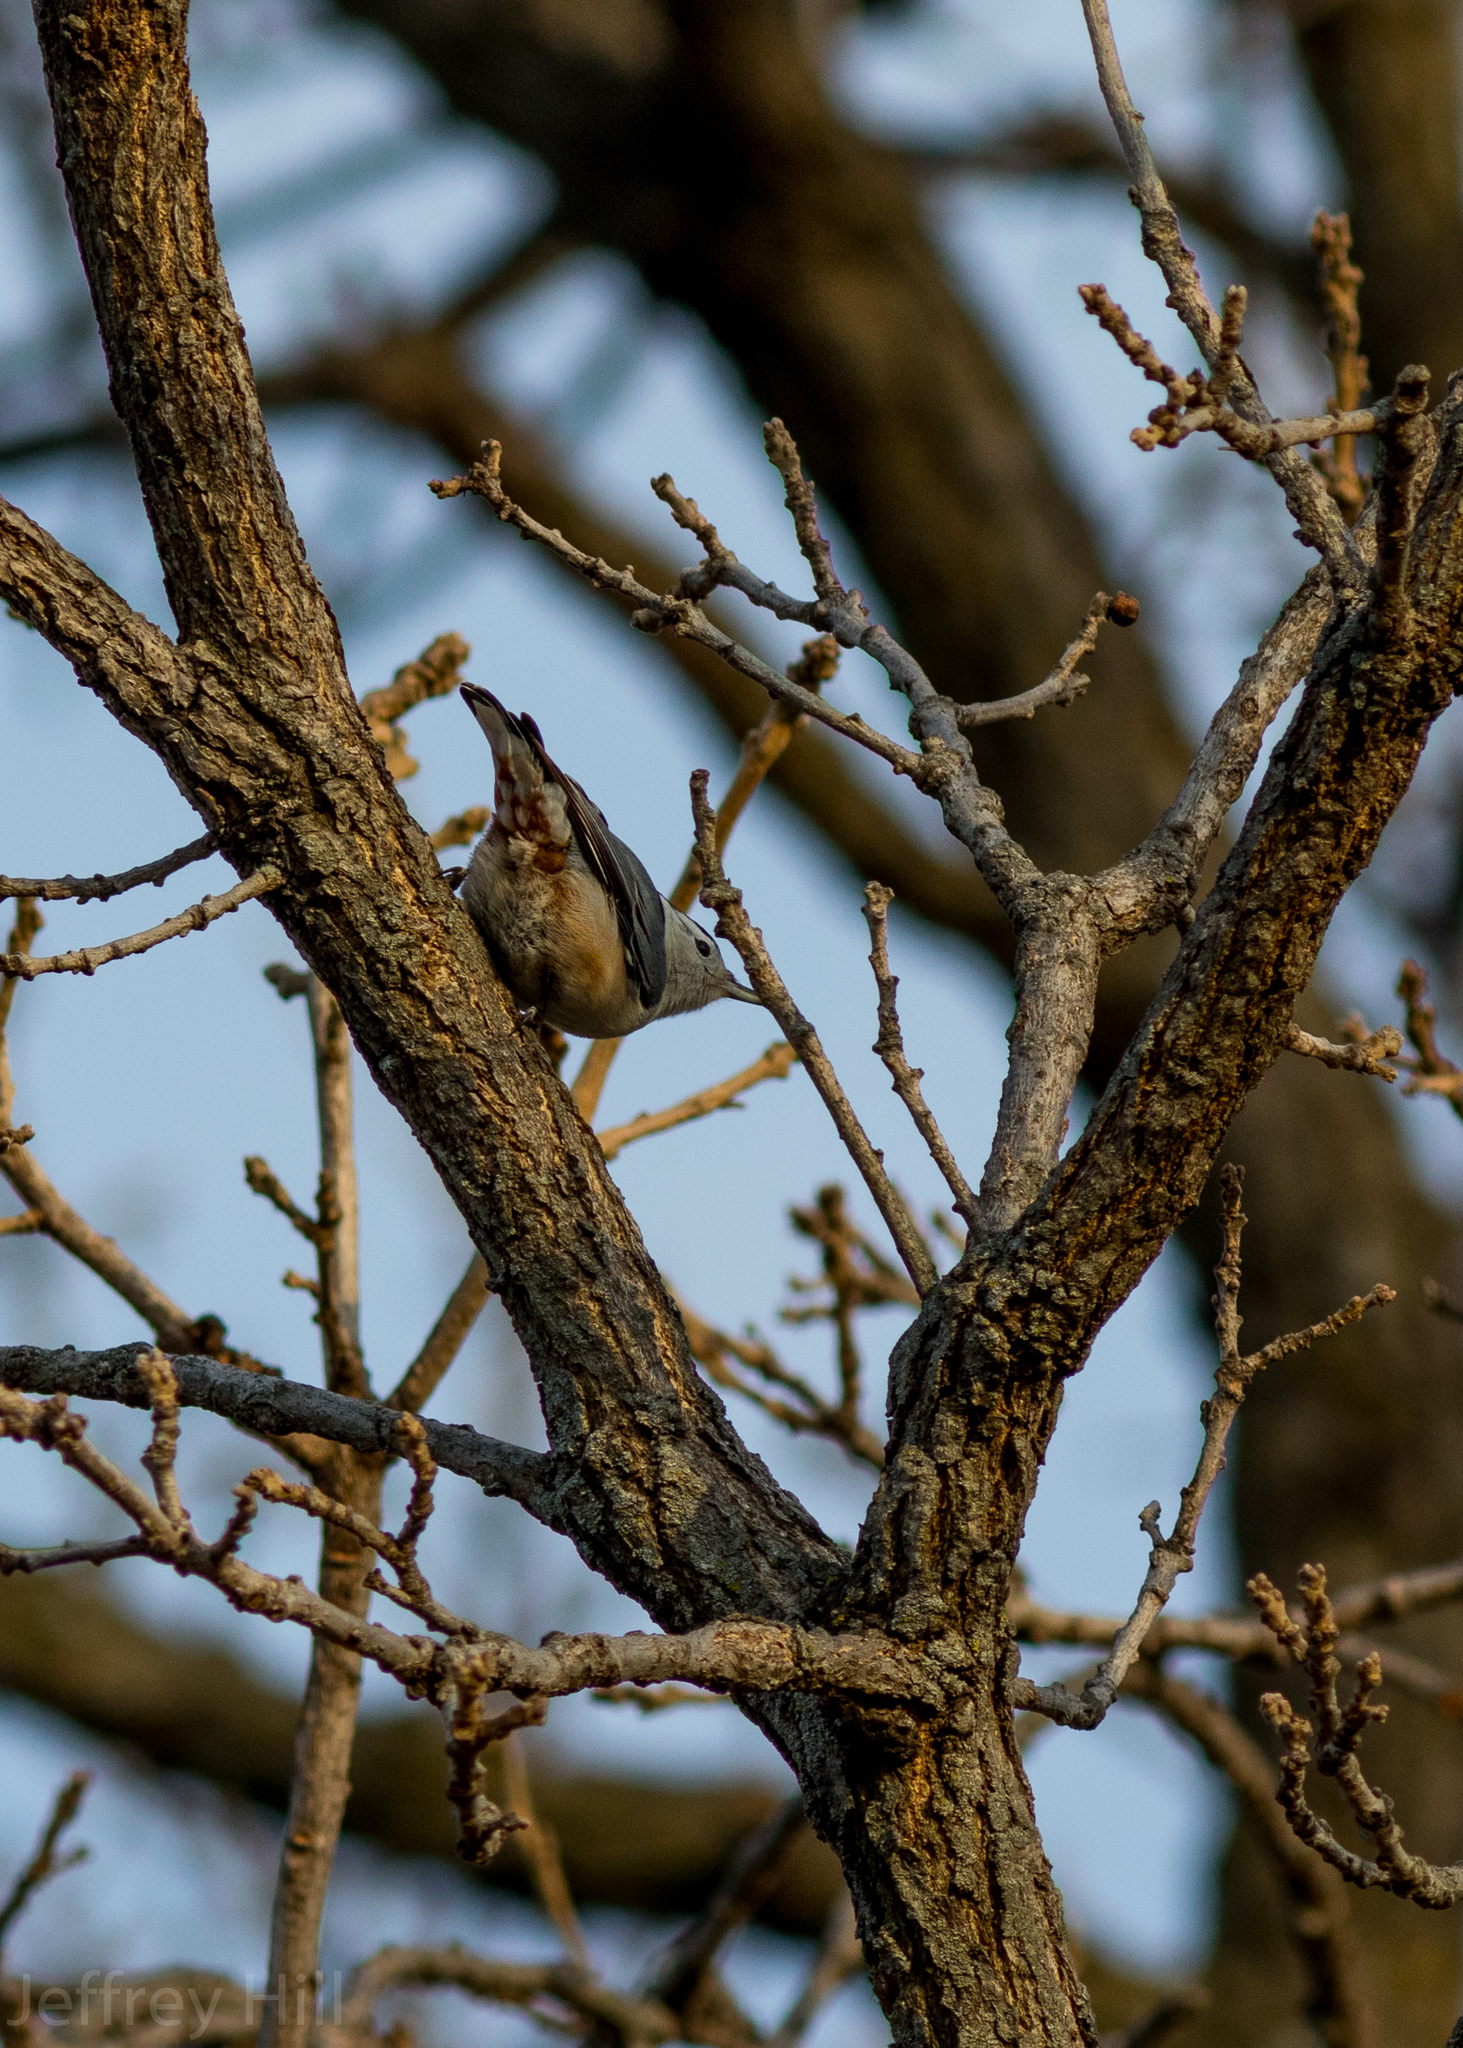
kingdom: Animalia
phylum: Chordata
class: Aves
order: Passeriformes
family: Sittidae
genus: Sitta
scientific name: Sitta carolinensis
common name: White-breasted nuthatch
